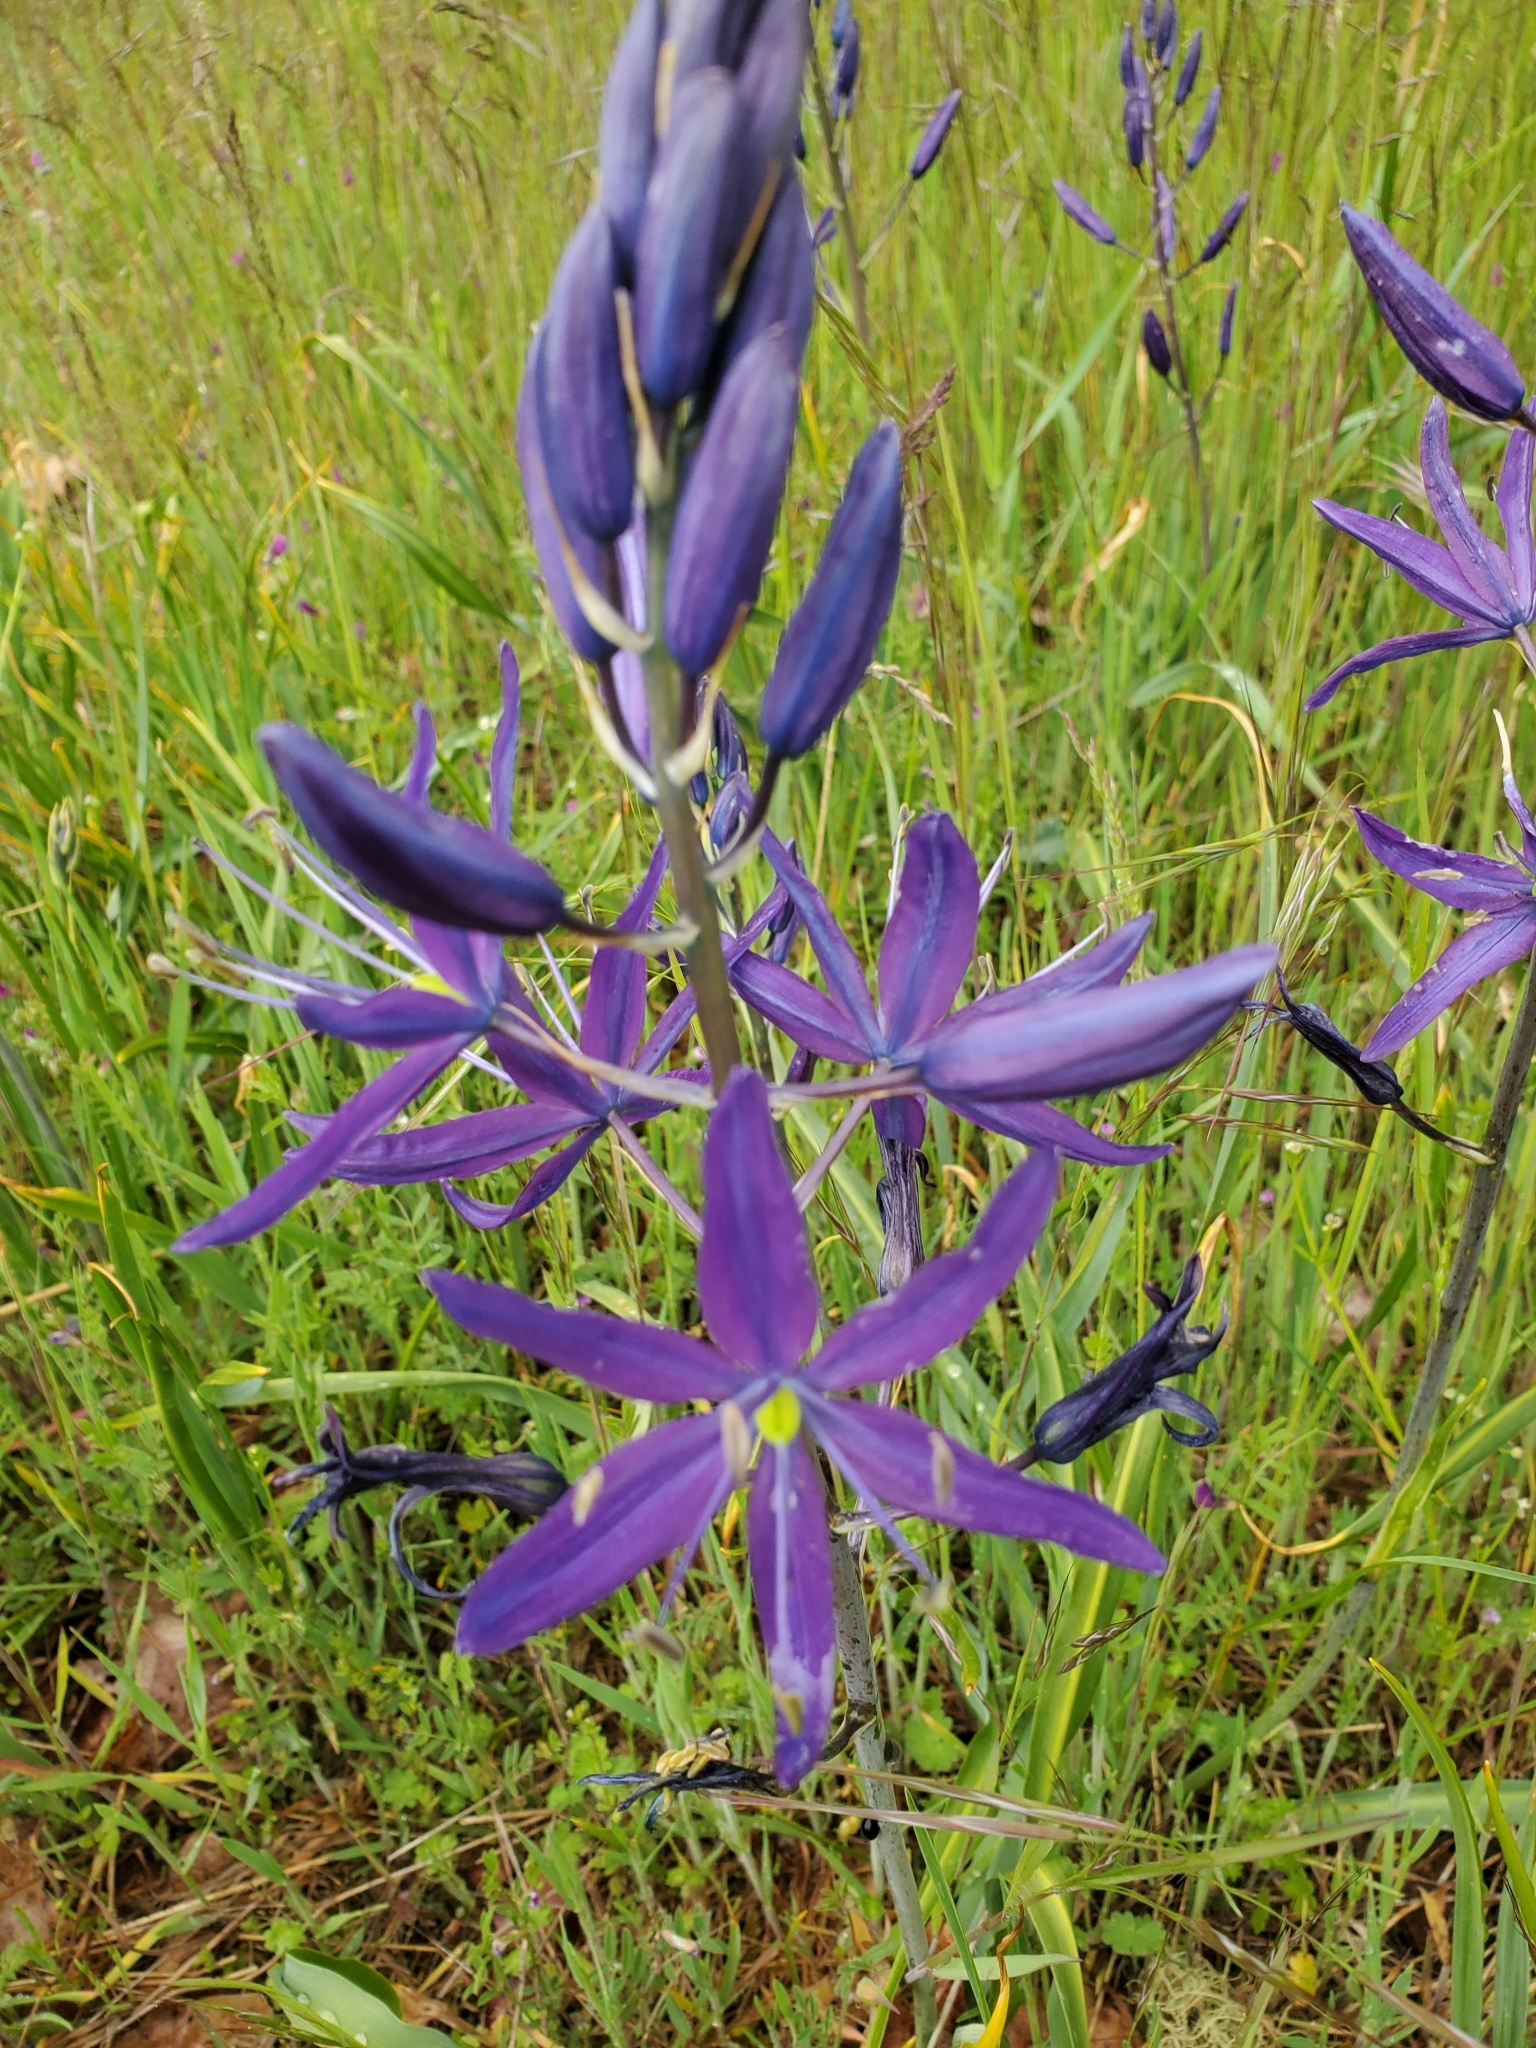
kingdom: Plantae
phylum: Tracheophyta
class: Liliopsida
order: Asparagales
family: Asparagaceae
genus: Camassia
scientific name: Camassia leichtlinii
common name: Leichtlin's camas
